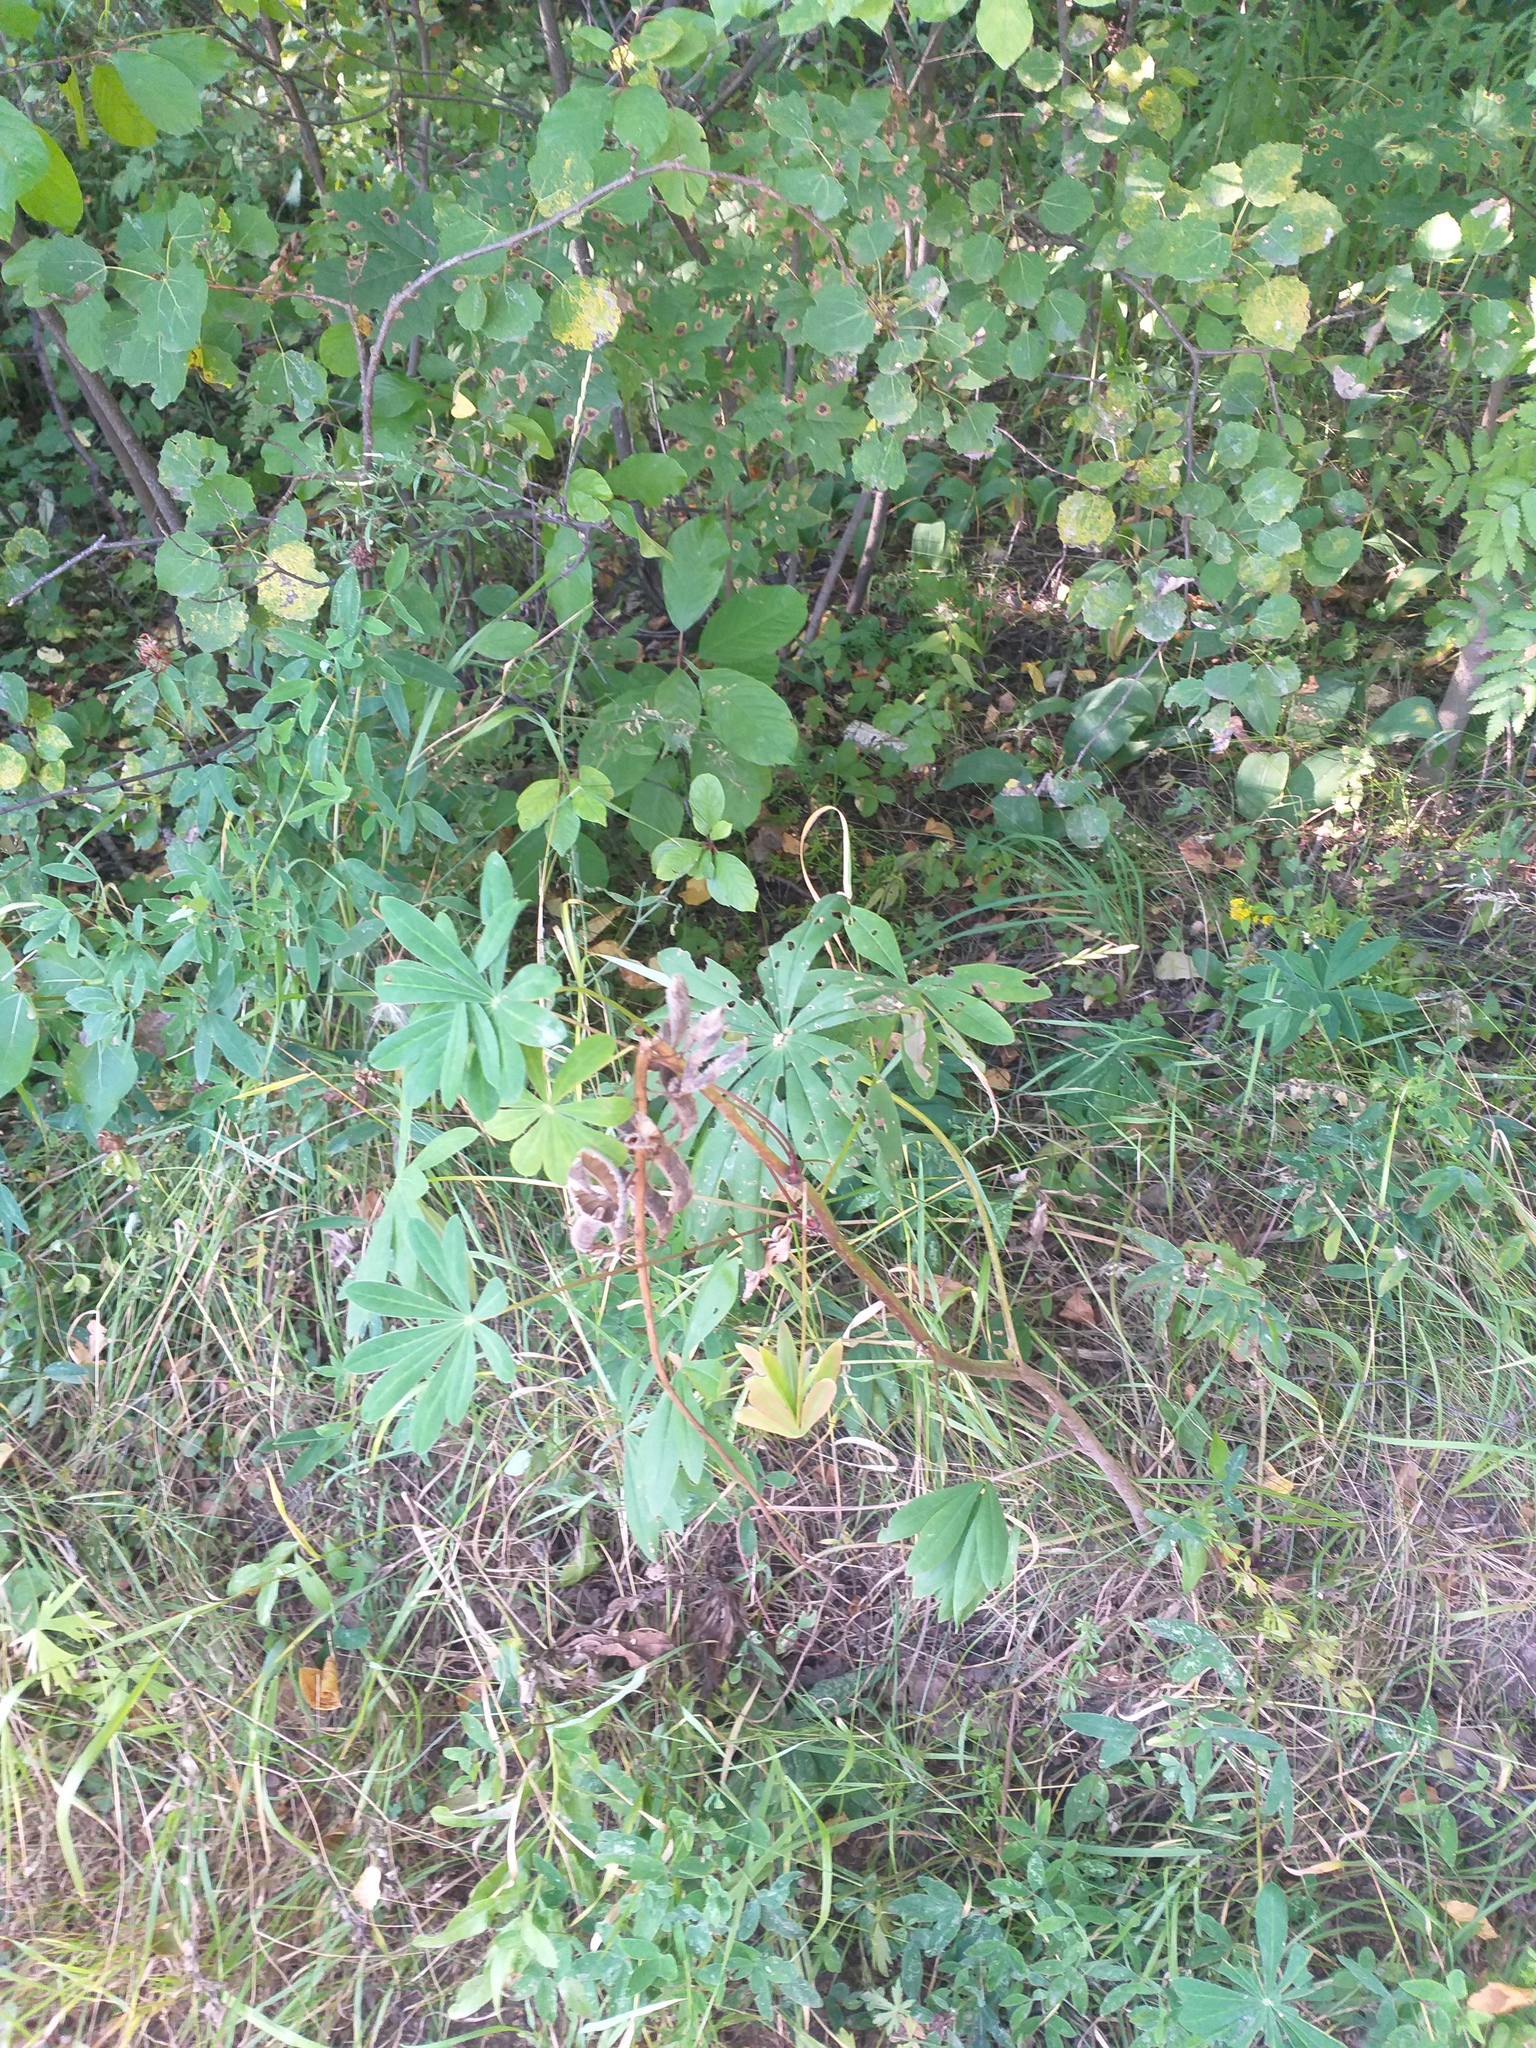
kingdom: Plantae
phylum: Tracheophyta
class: Magnoliopsida
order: Fabales
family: Fabaceae
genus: Lupinus
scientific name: Lupinus polyphyllus
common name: Garden lupin
